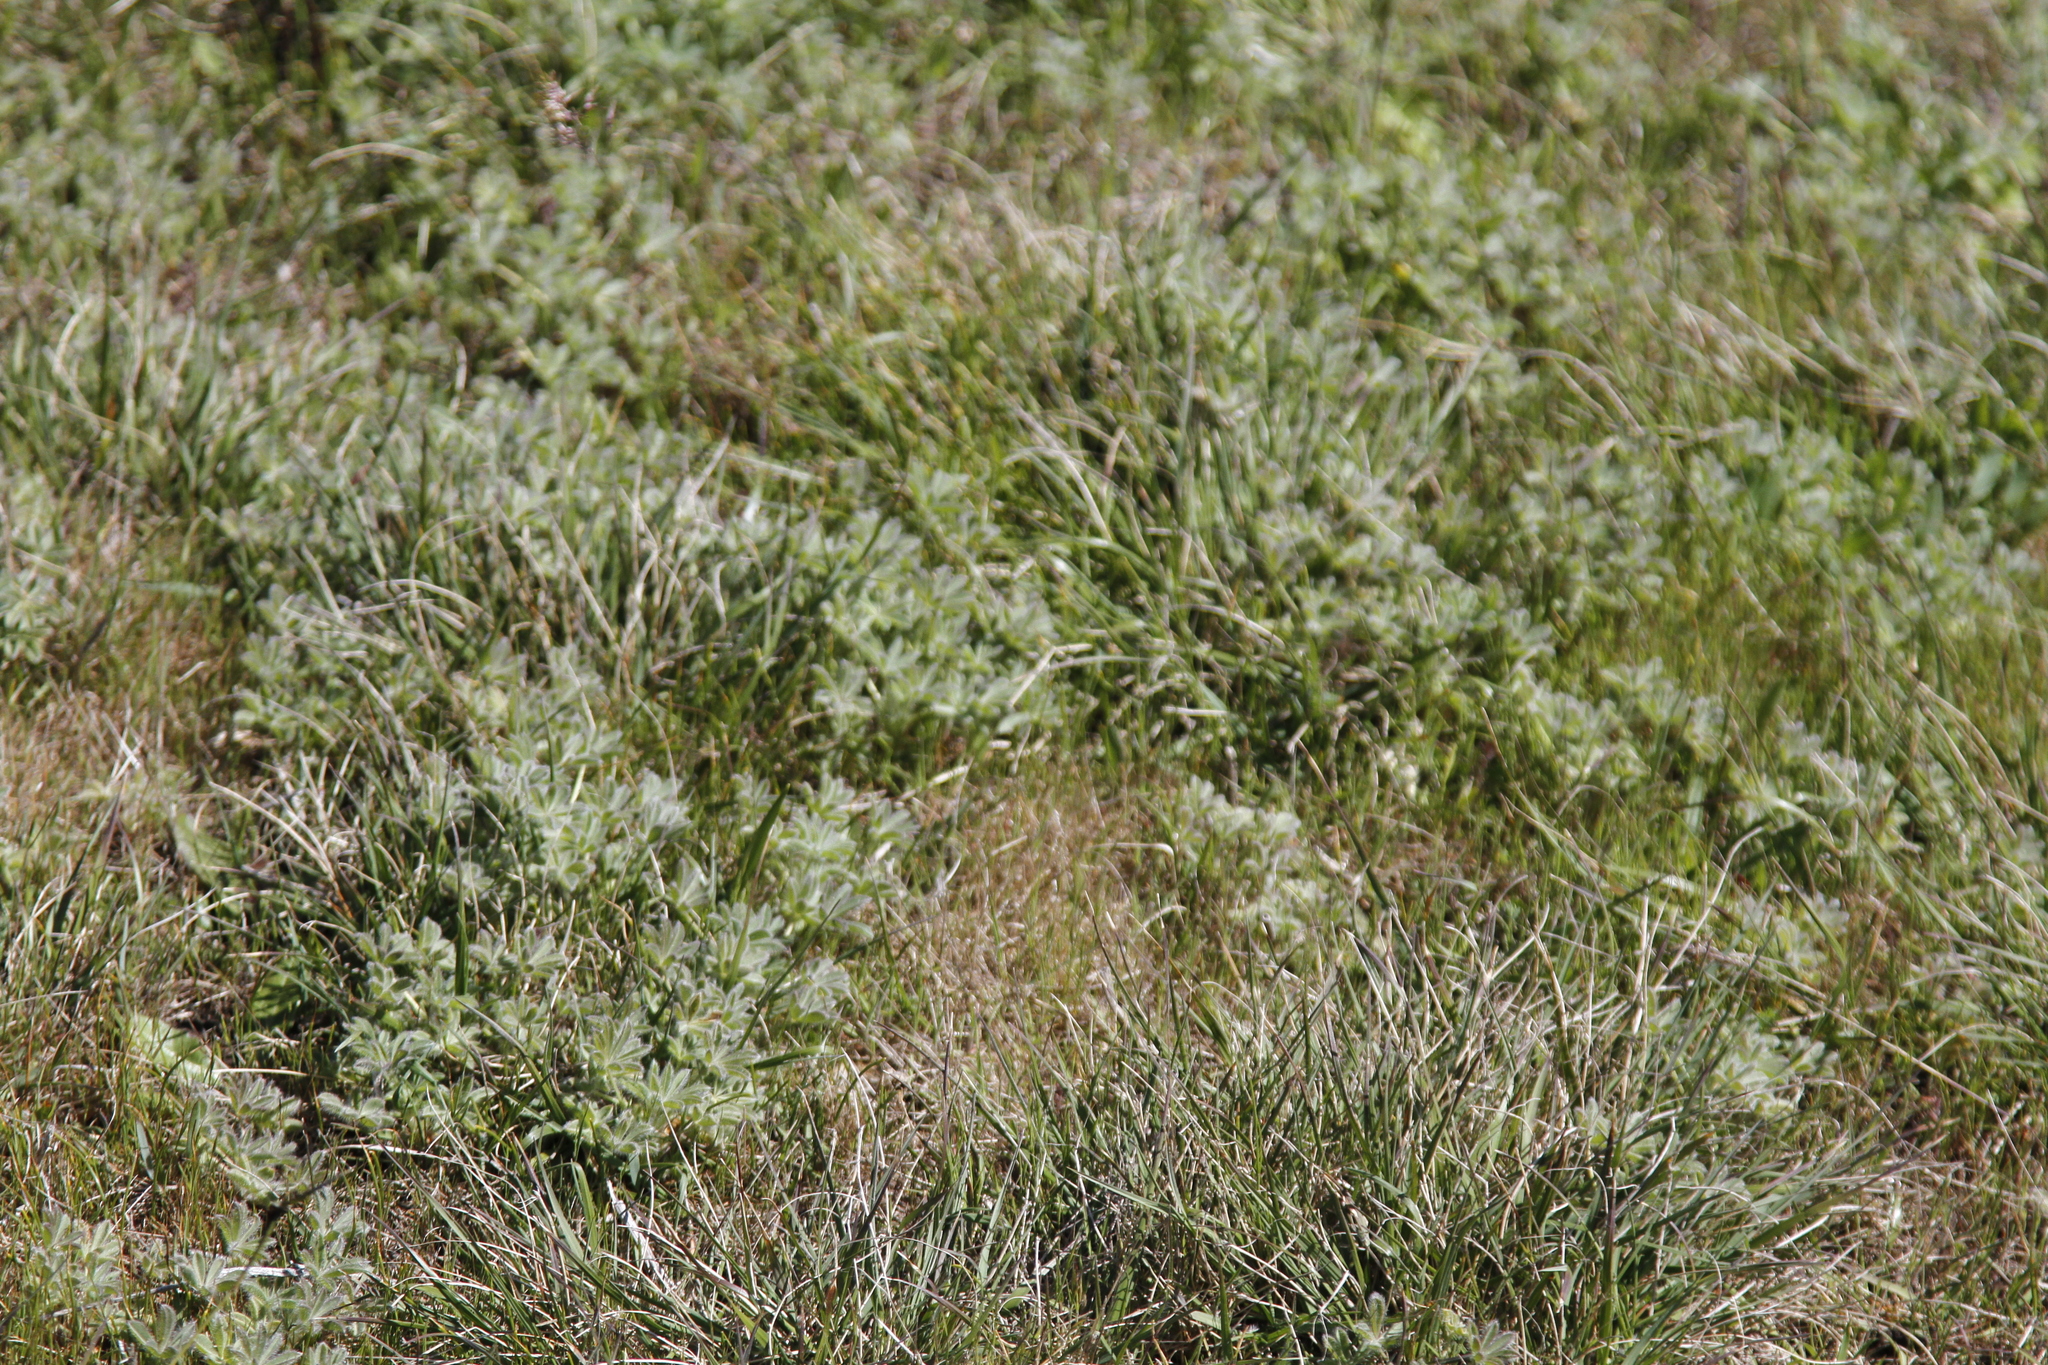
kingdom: Plantae
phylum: Tracheophyta
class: Magnoliopsida
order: Fabales
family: Fabaceae
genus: Lupinus
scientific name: Lupinus densiflorus
